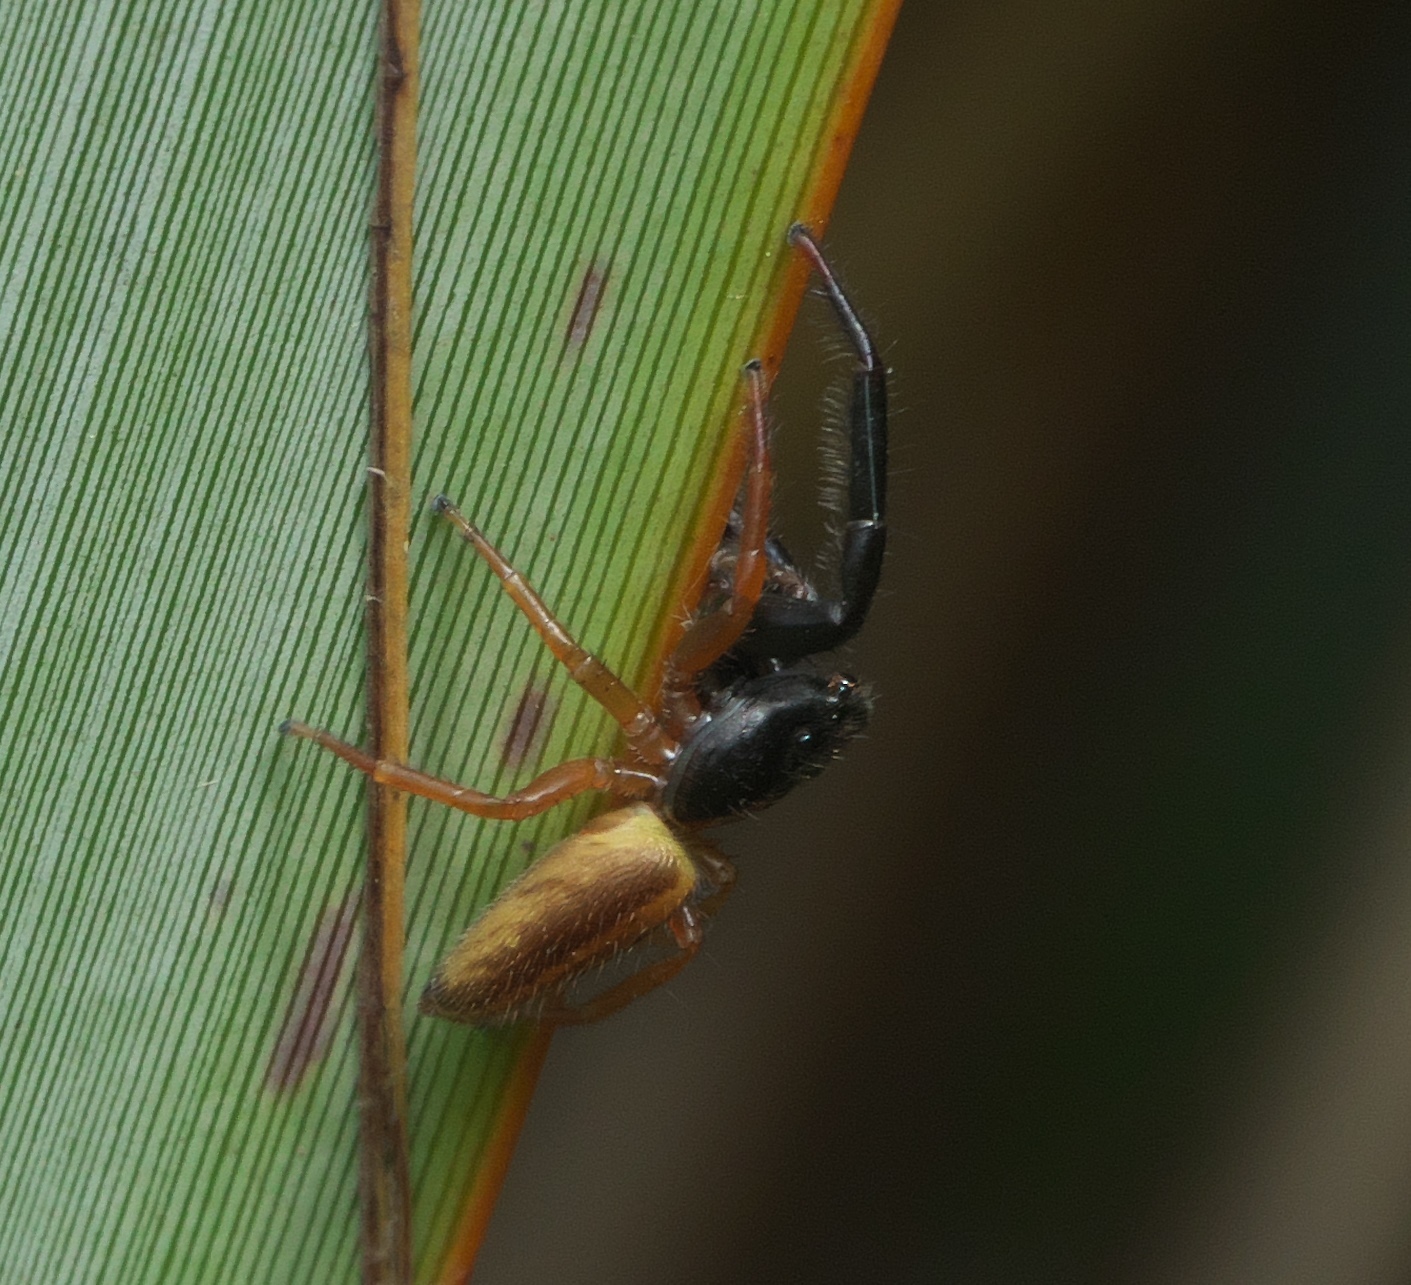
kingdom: Animalia
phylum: Arthropoda
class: Arachnida
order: Araneae
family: Salticidae
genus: Trite
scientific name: Trite planiceps
